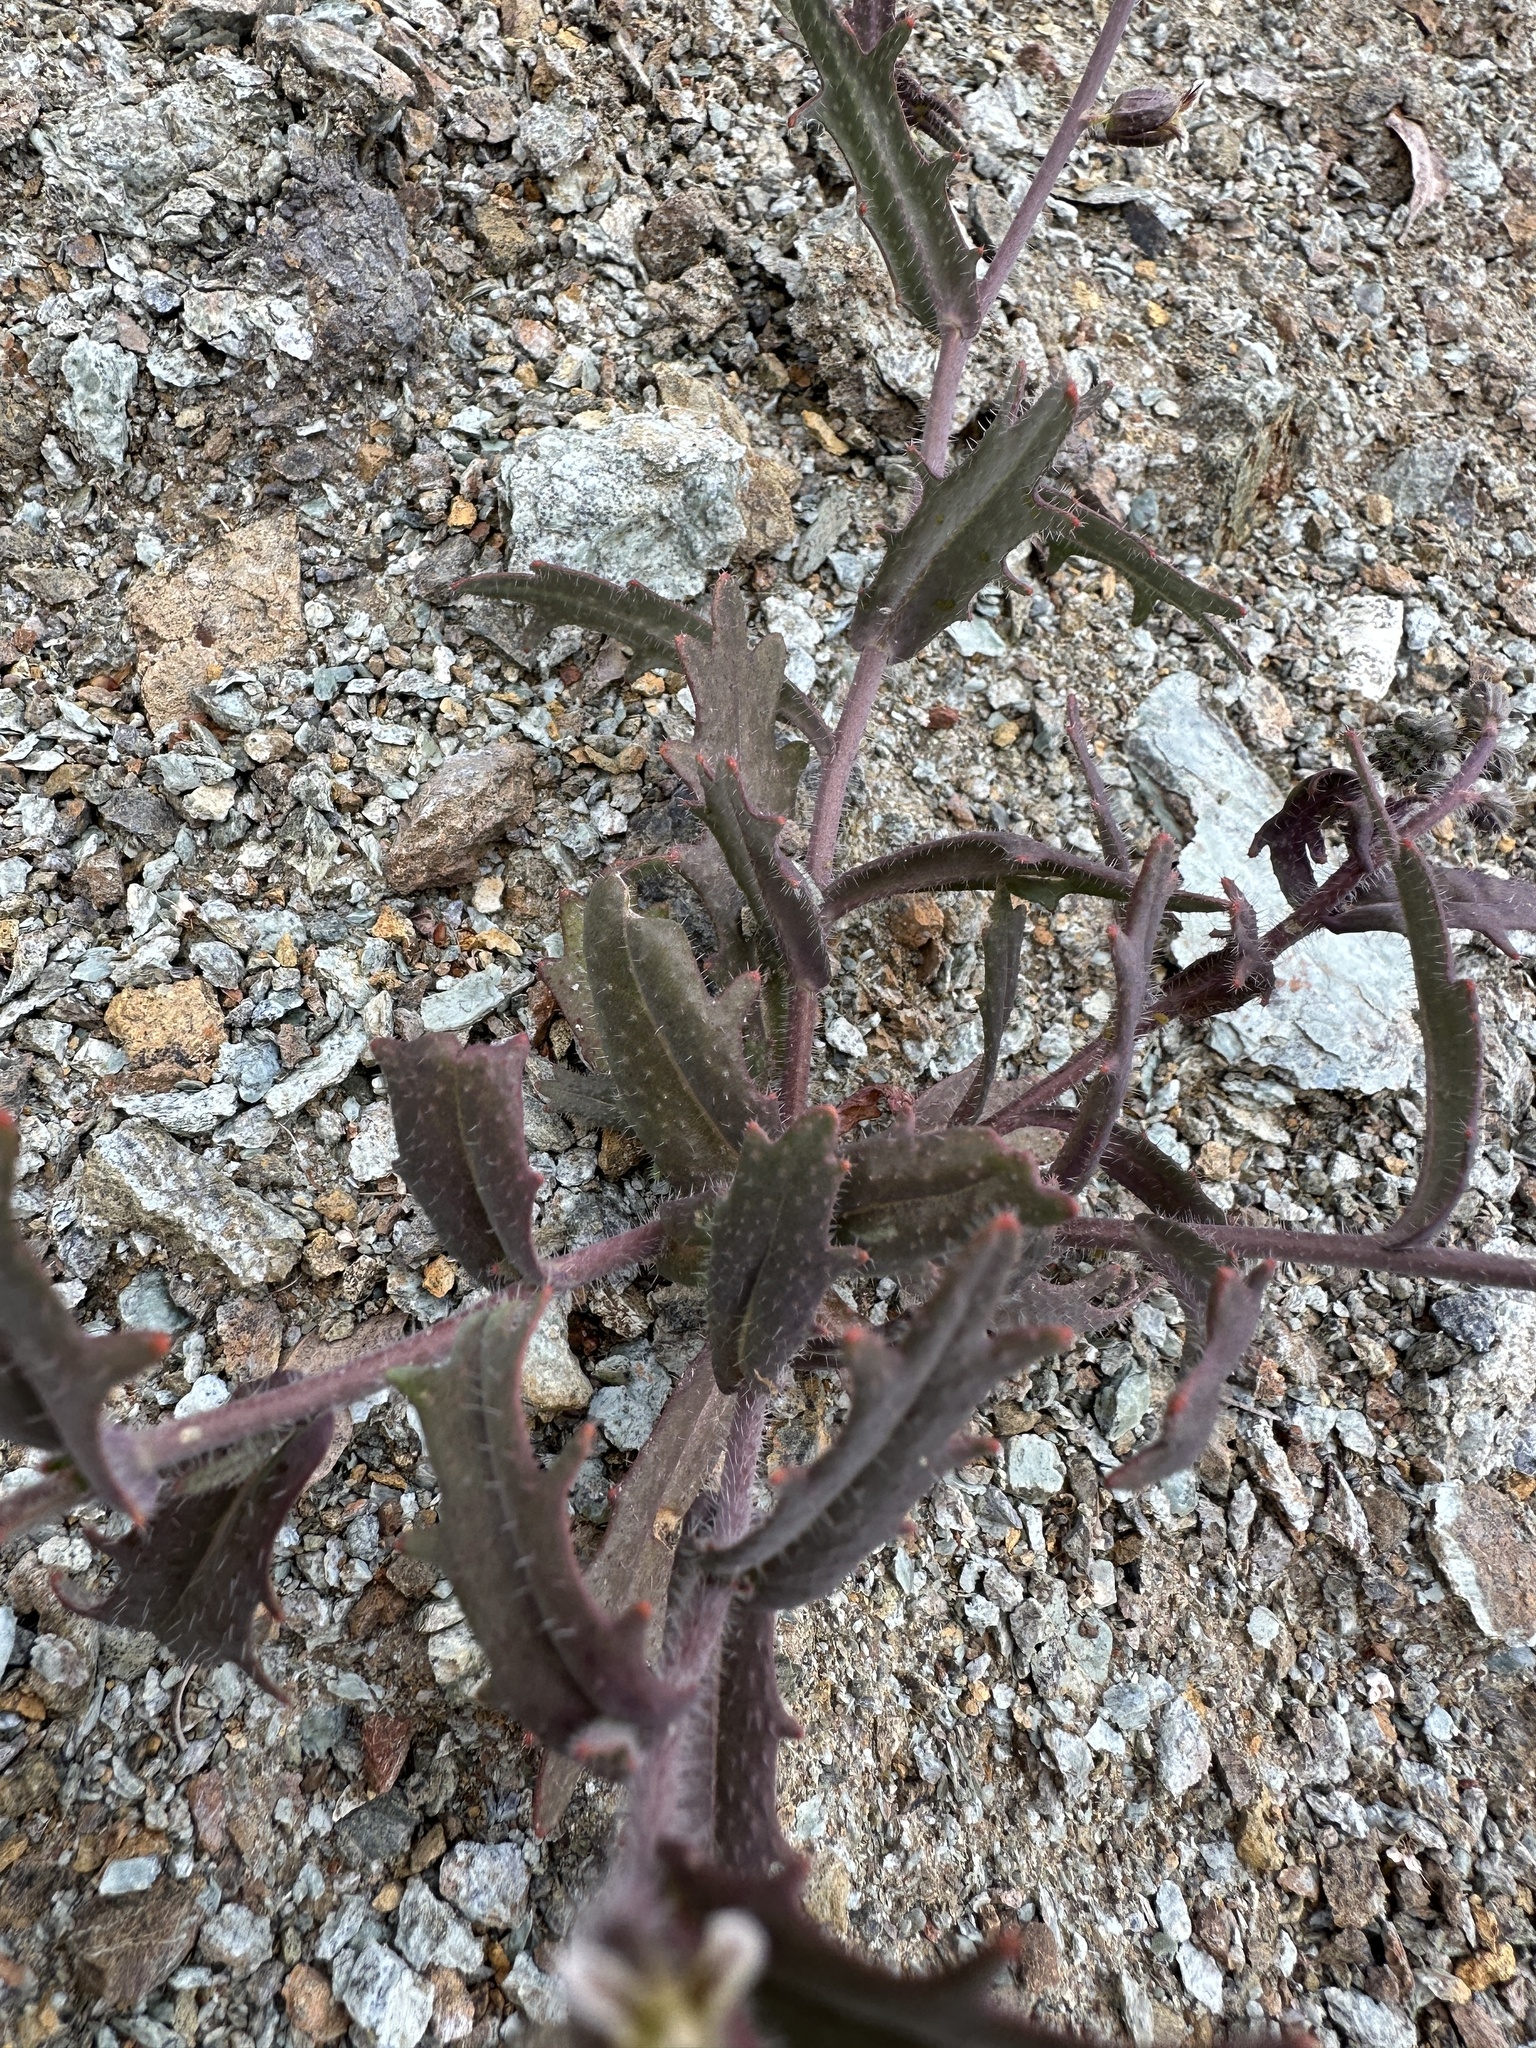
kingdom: Plantae
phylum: Tracheophyta
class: Magnoliopsida
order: Brassicales
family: Brassicaceae
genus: Streptanthus
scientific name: Streptanthus insignis
